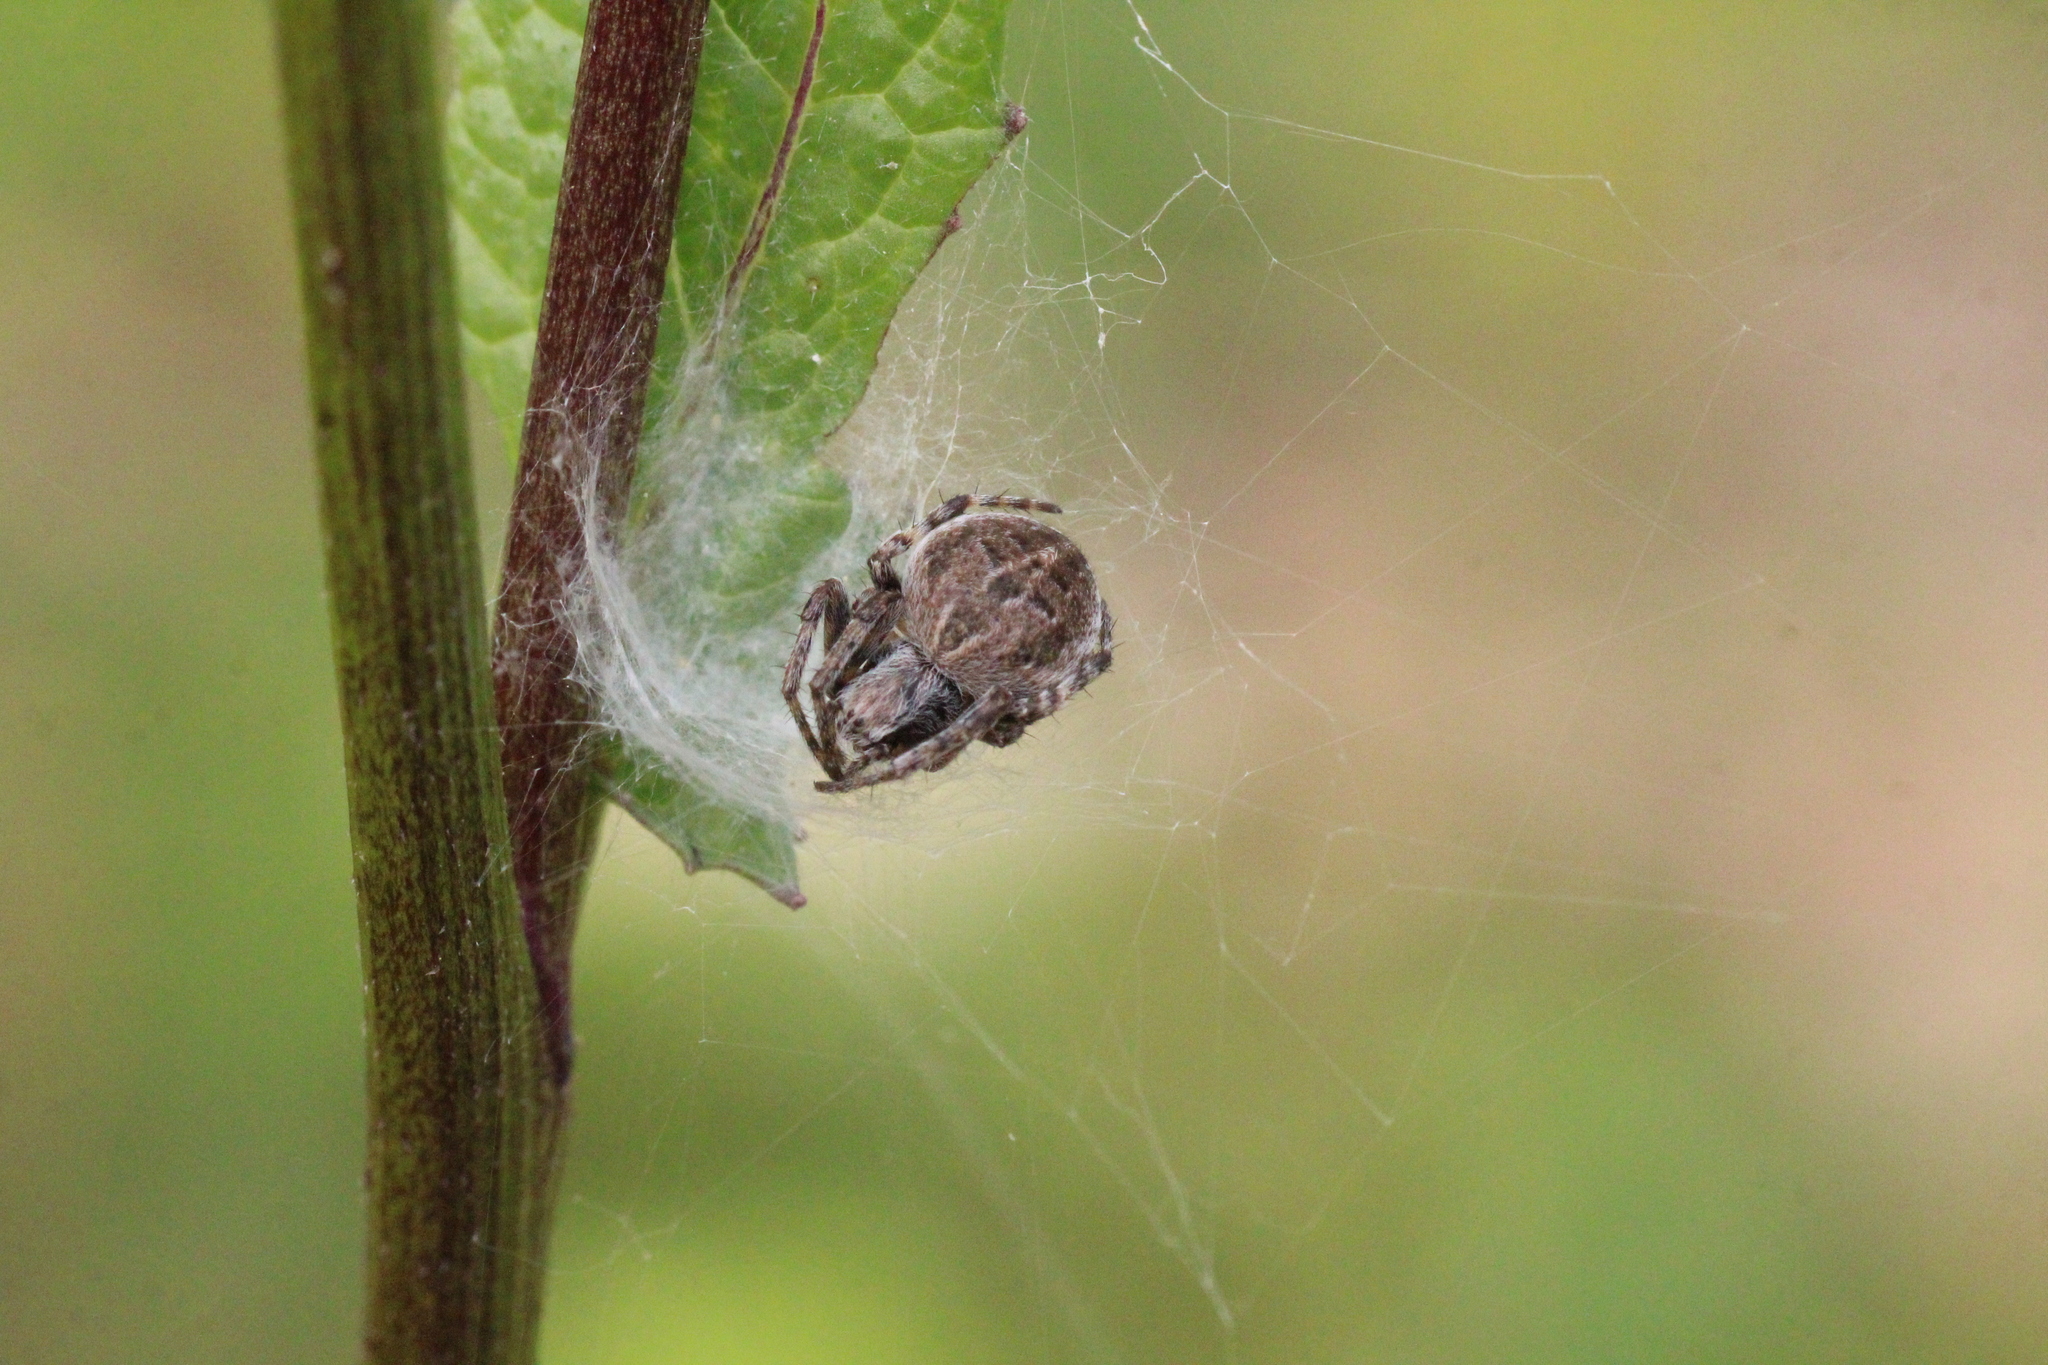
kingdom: Animalia
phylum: Arthropoda
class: Arachnida
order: Araneae
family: Araneidae
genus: Agalenatea
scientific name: Agalenatea redii
